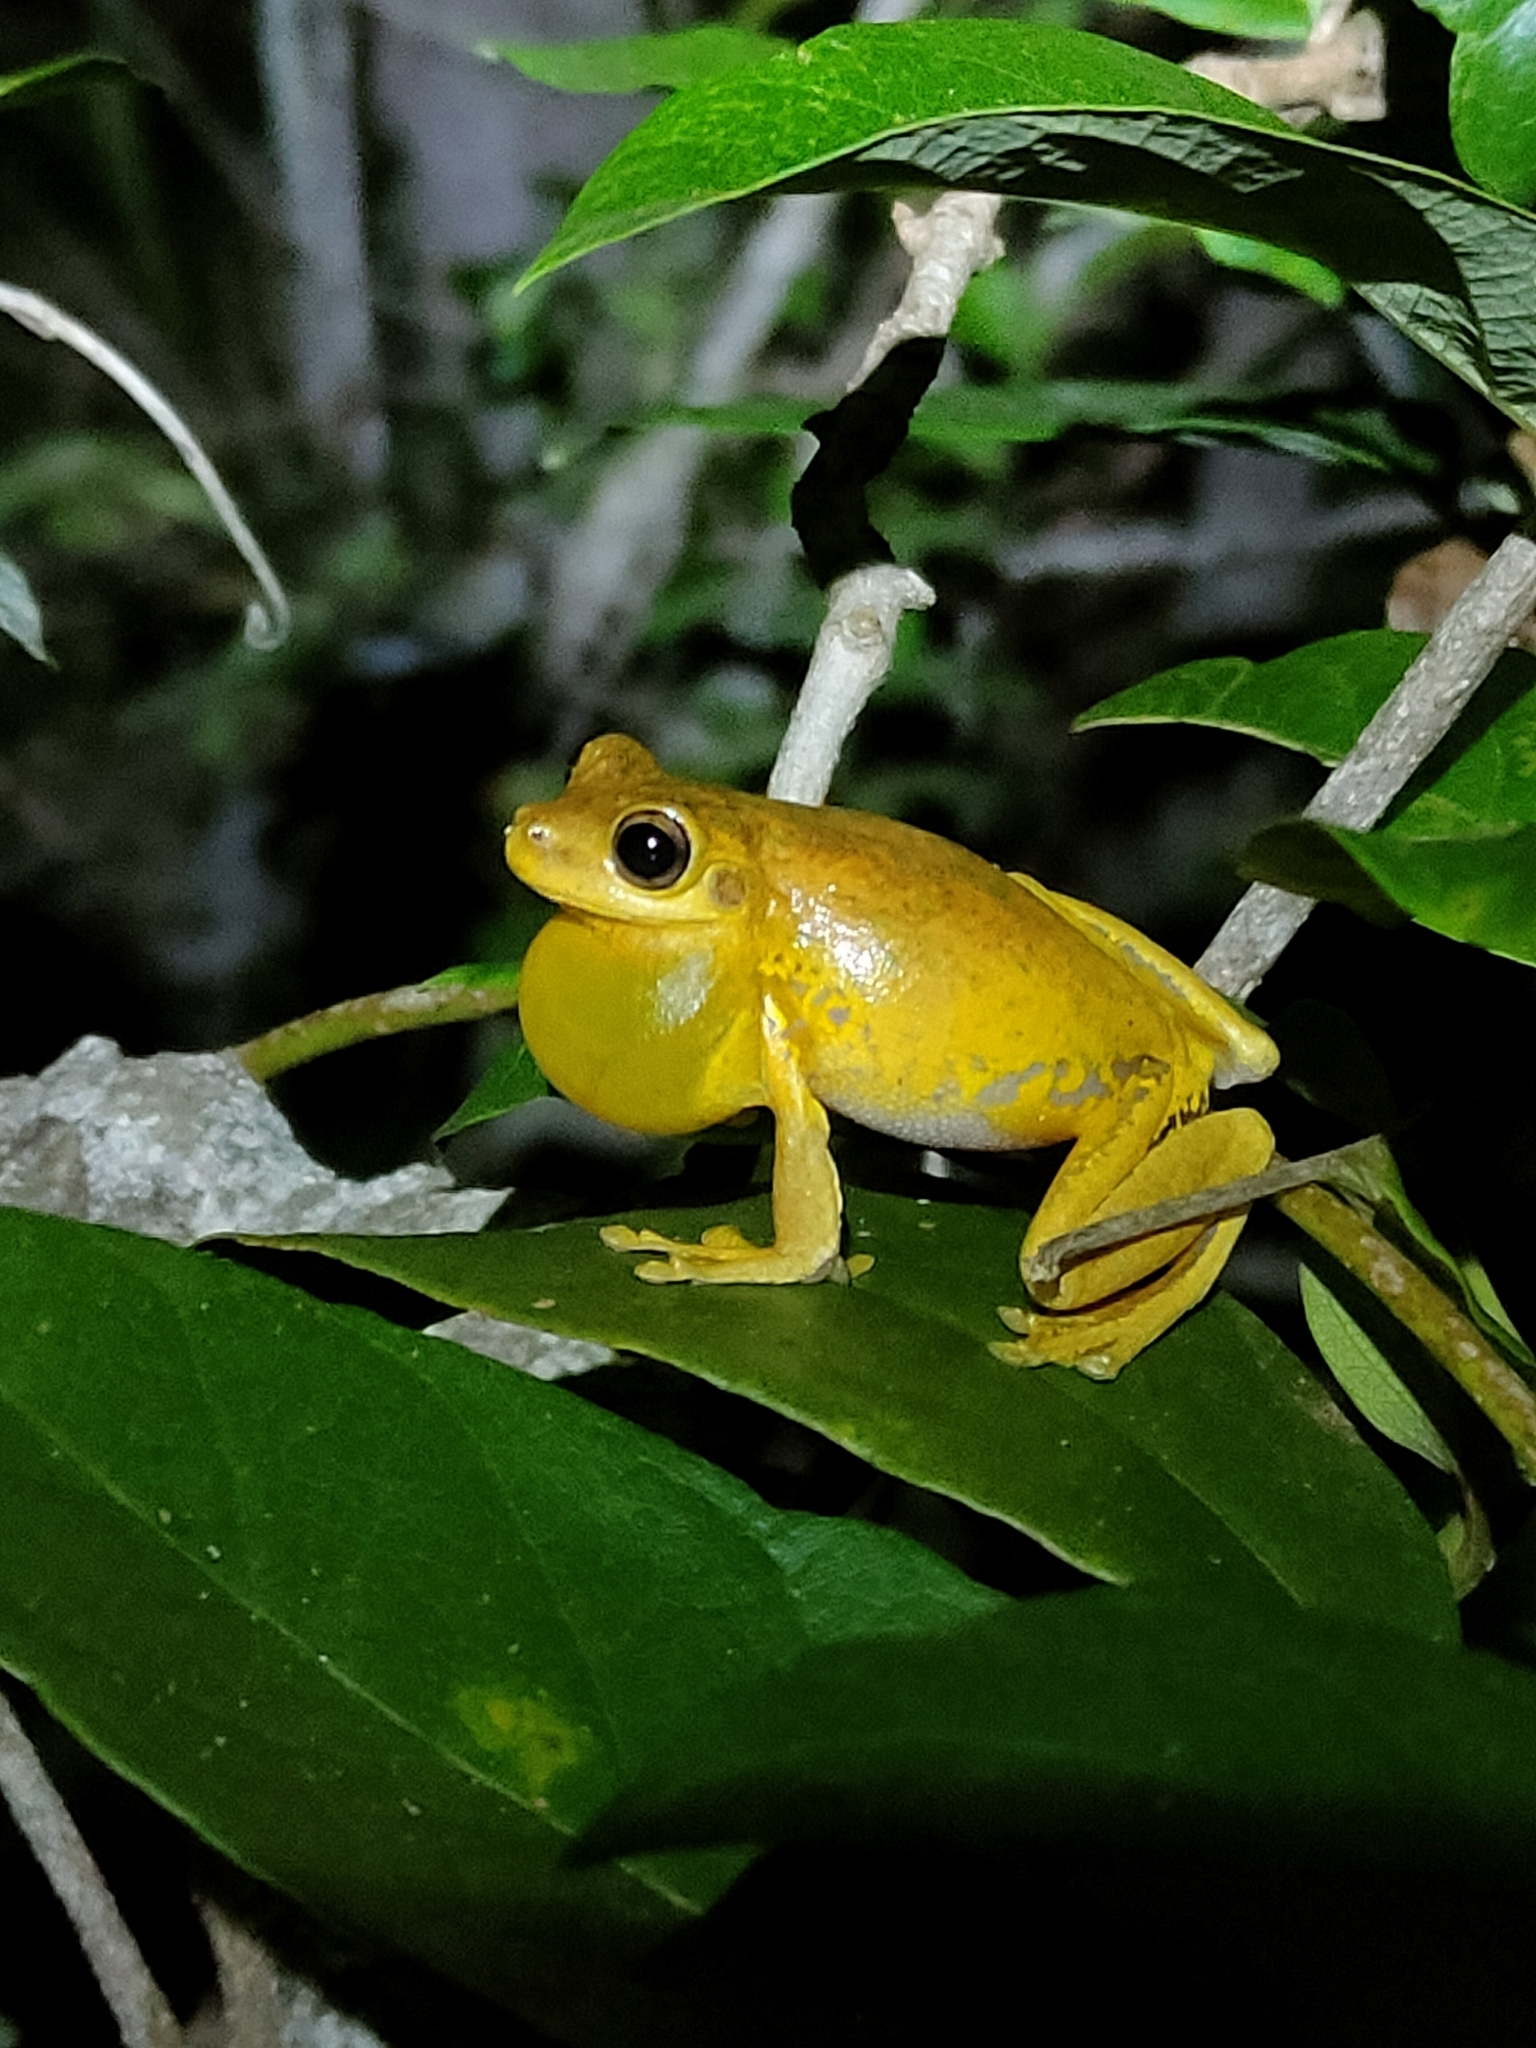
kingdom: Animalia
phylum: Chordata
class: Amphibia
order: Anura
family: Pelodryadidae
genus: Litoria
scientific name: Litoria tyleri
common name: Laughing tree frog
